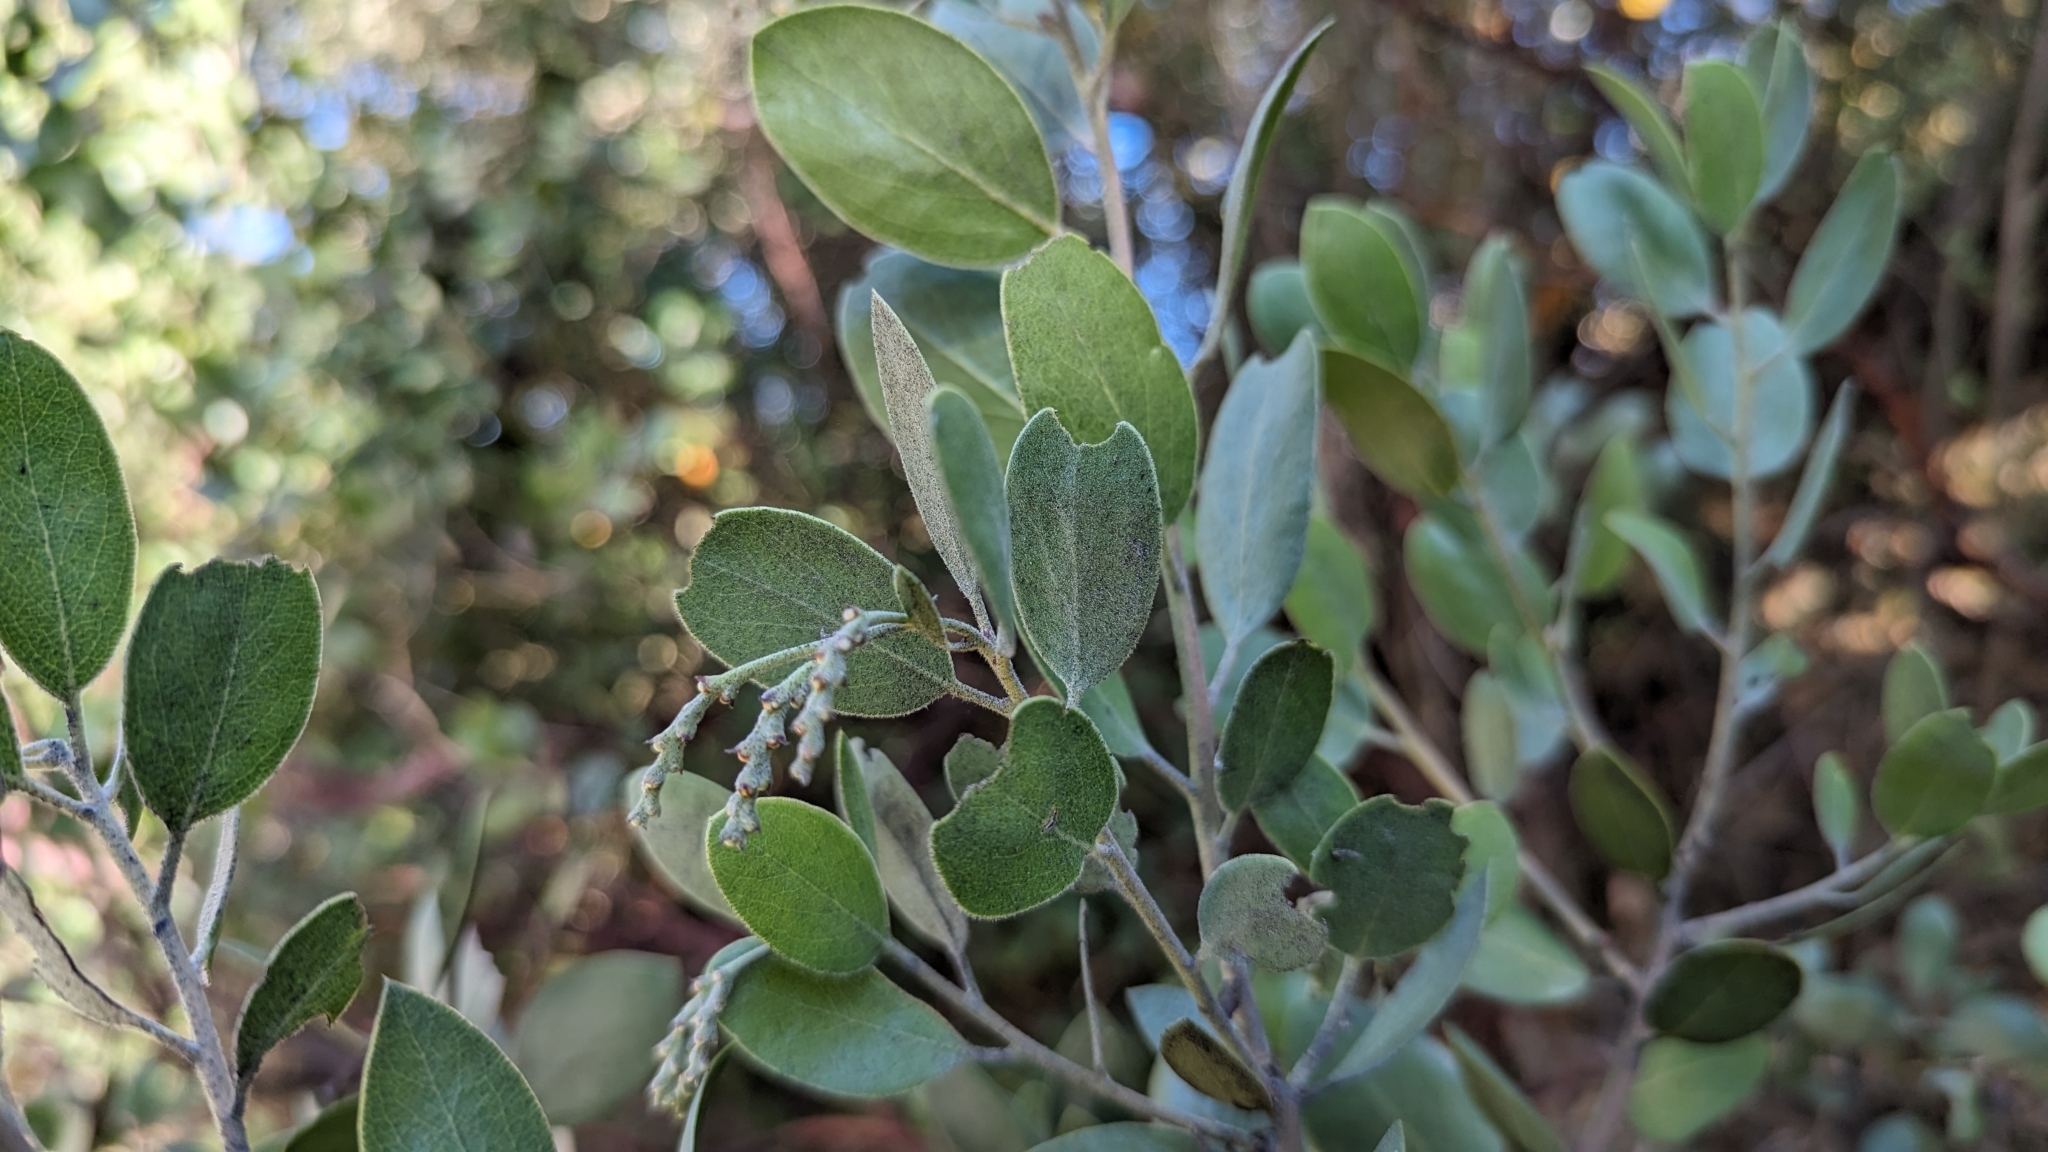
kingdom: Plantae
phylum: Tracheophyta
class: Magnoliopsida
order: Ericales
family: Ericaceae
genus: Arctostaphylos
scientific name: Arctostaphylos manzanita
